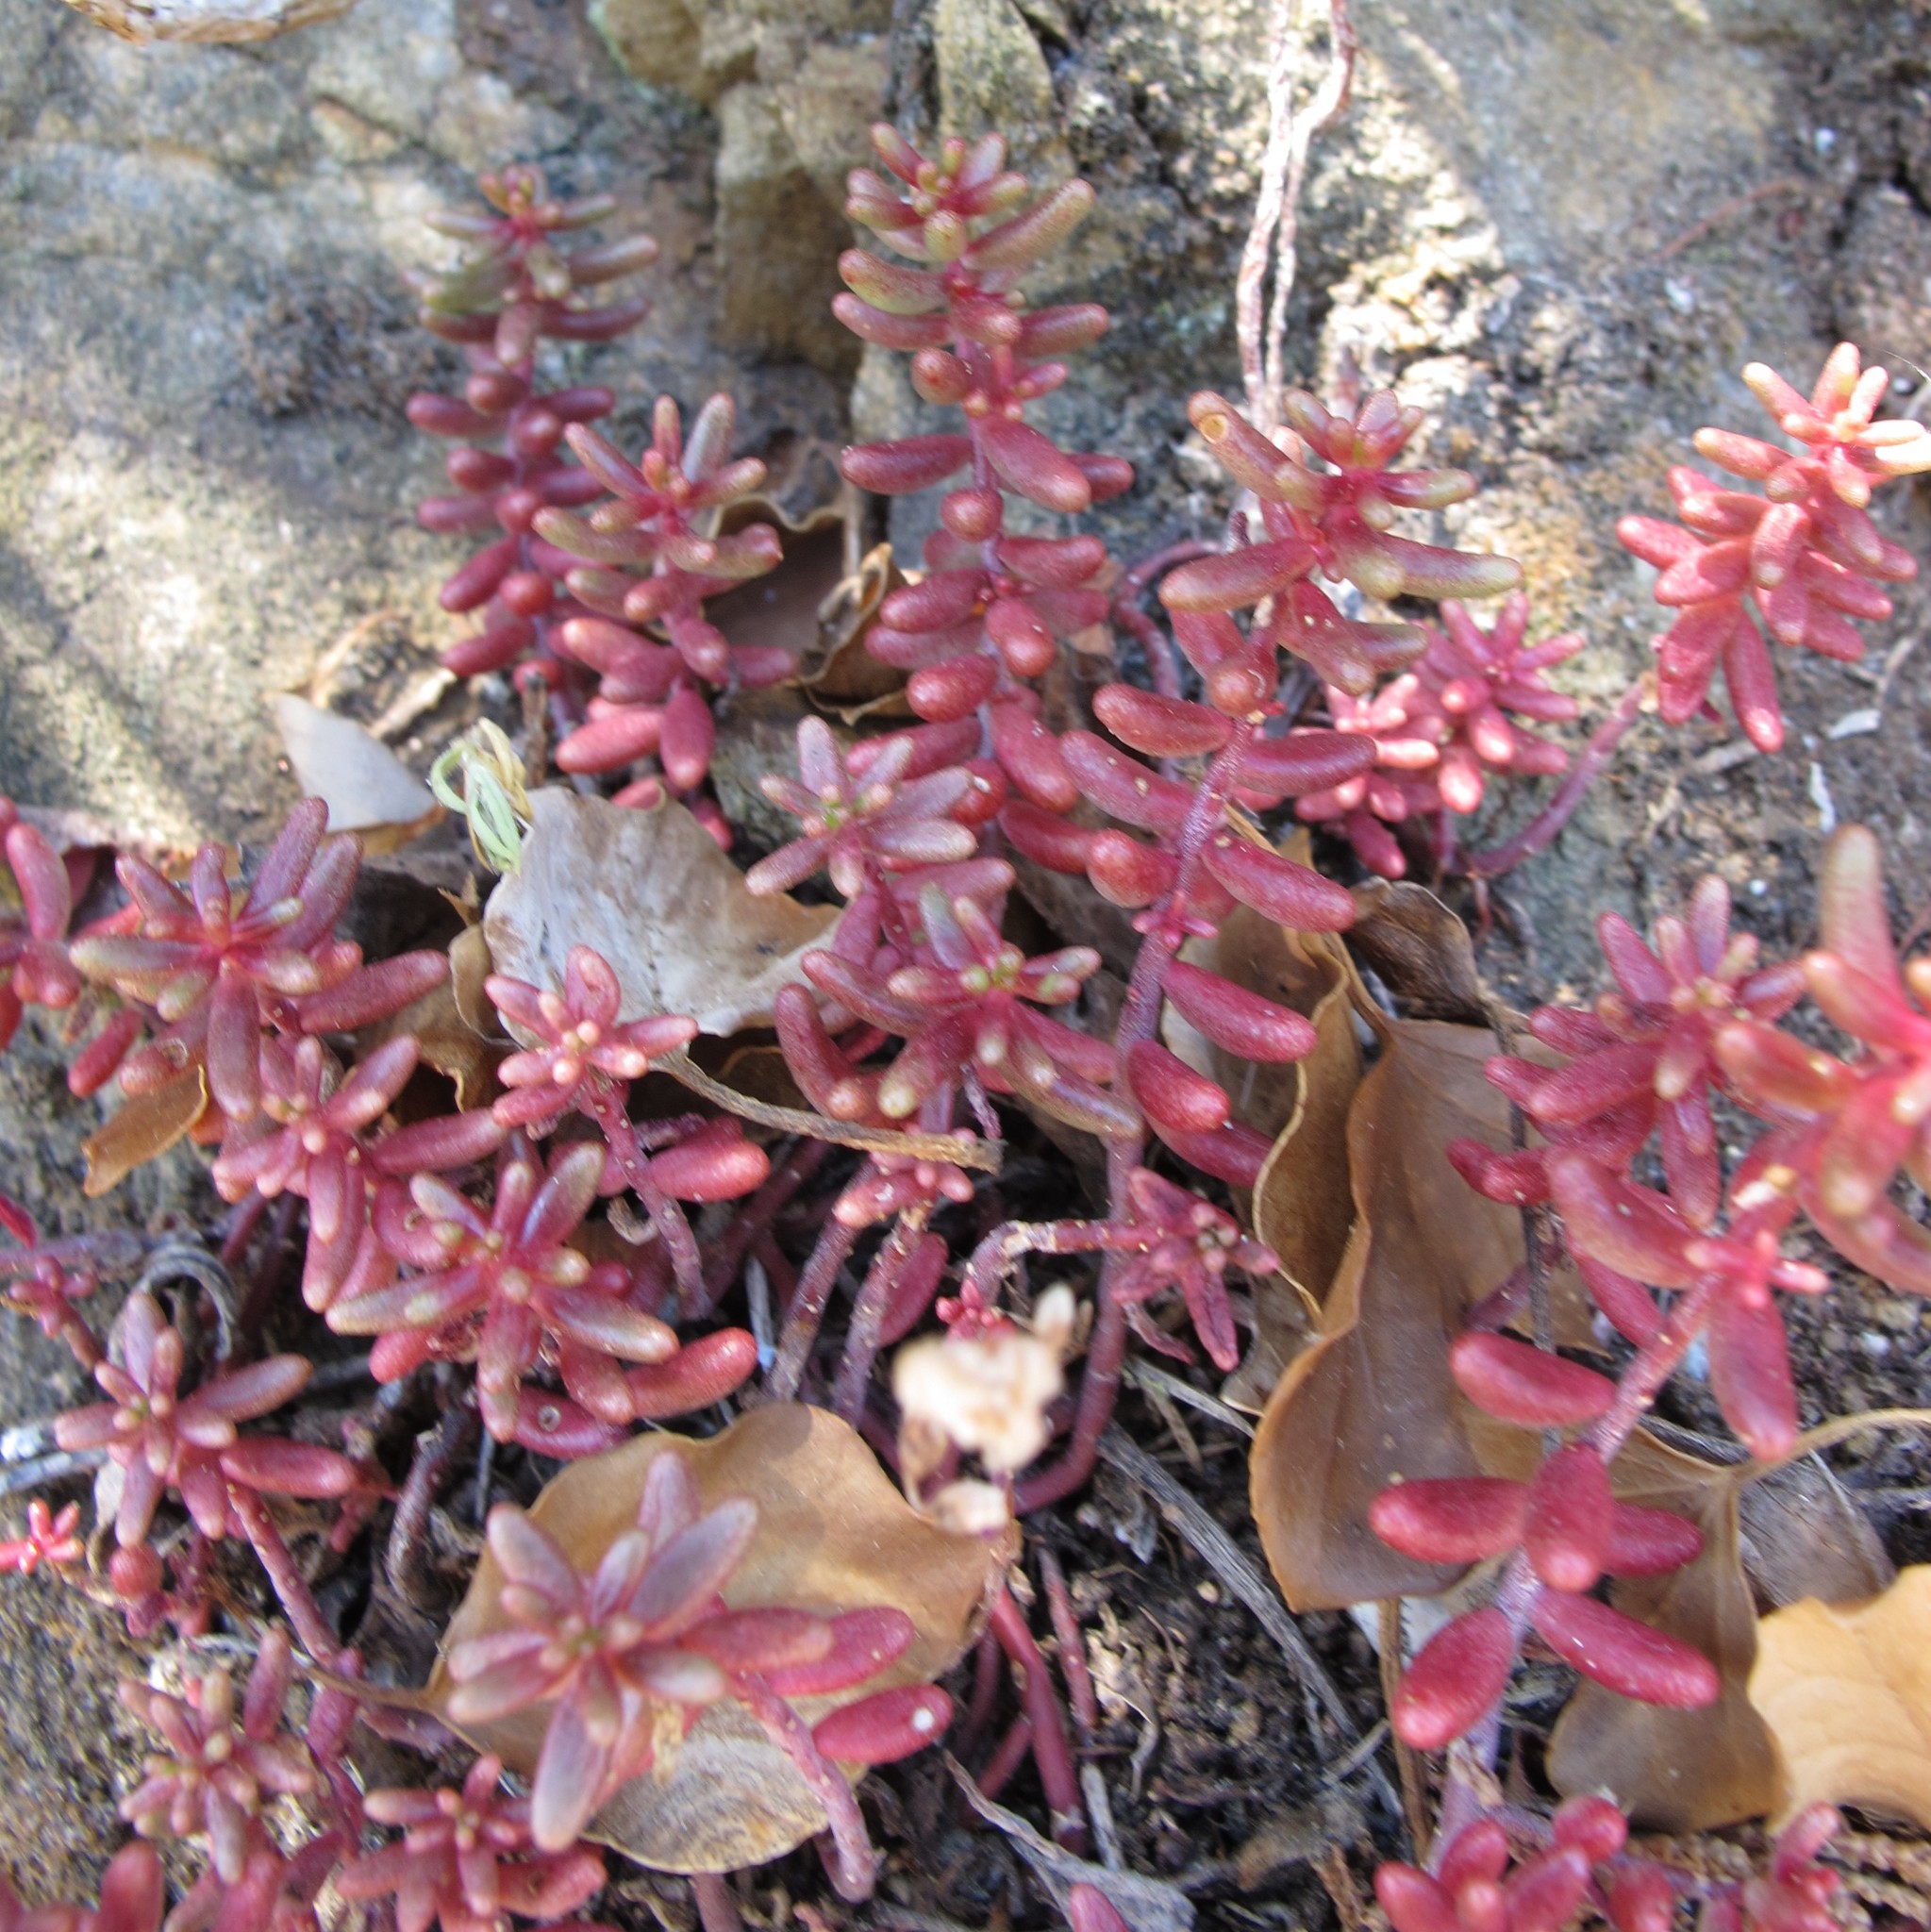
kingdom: Plantae
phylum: Tracheophyta
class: Magnoliopsida
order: Saxifragales
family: Crassulaceae
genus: Sedum
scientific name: Sedum album
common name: White stonecrop
